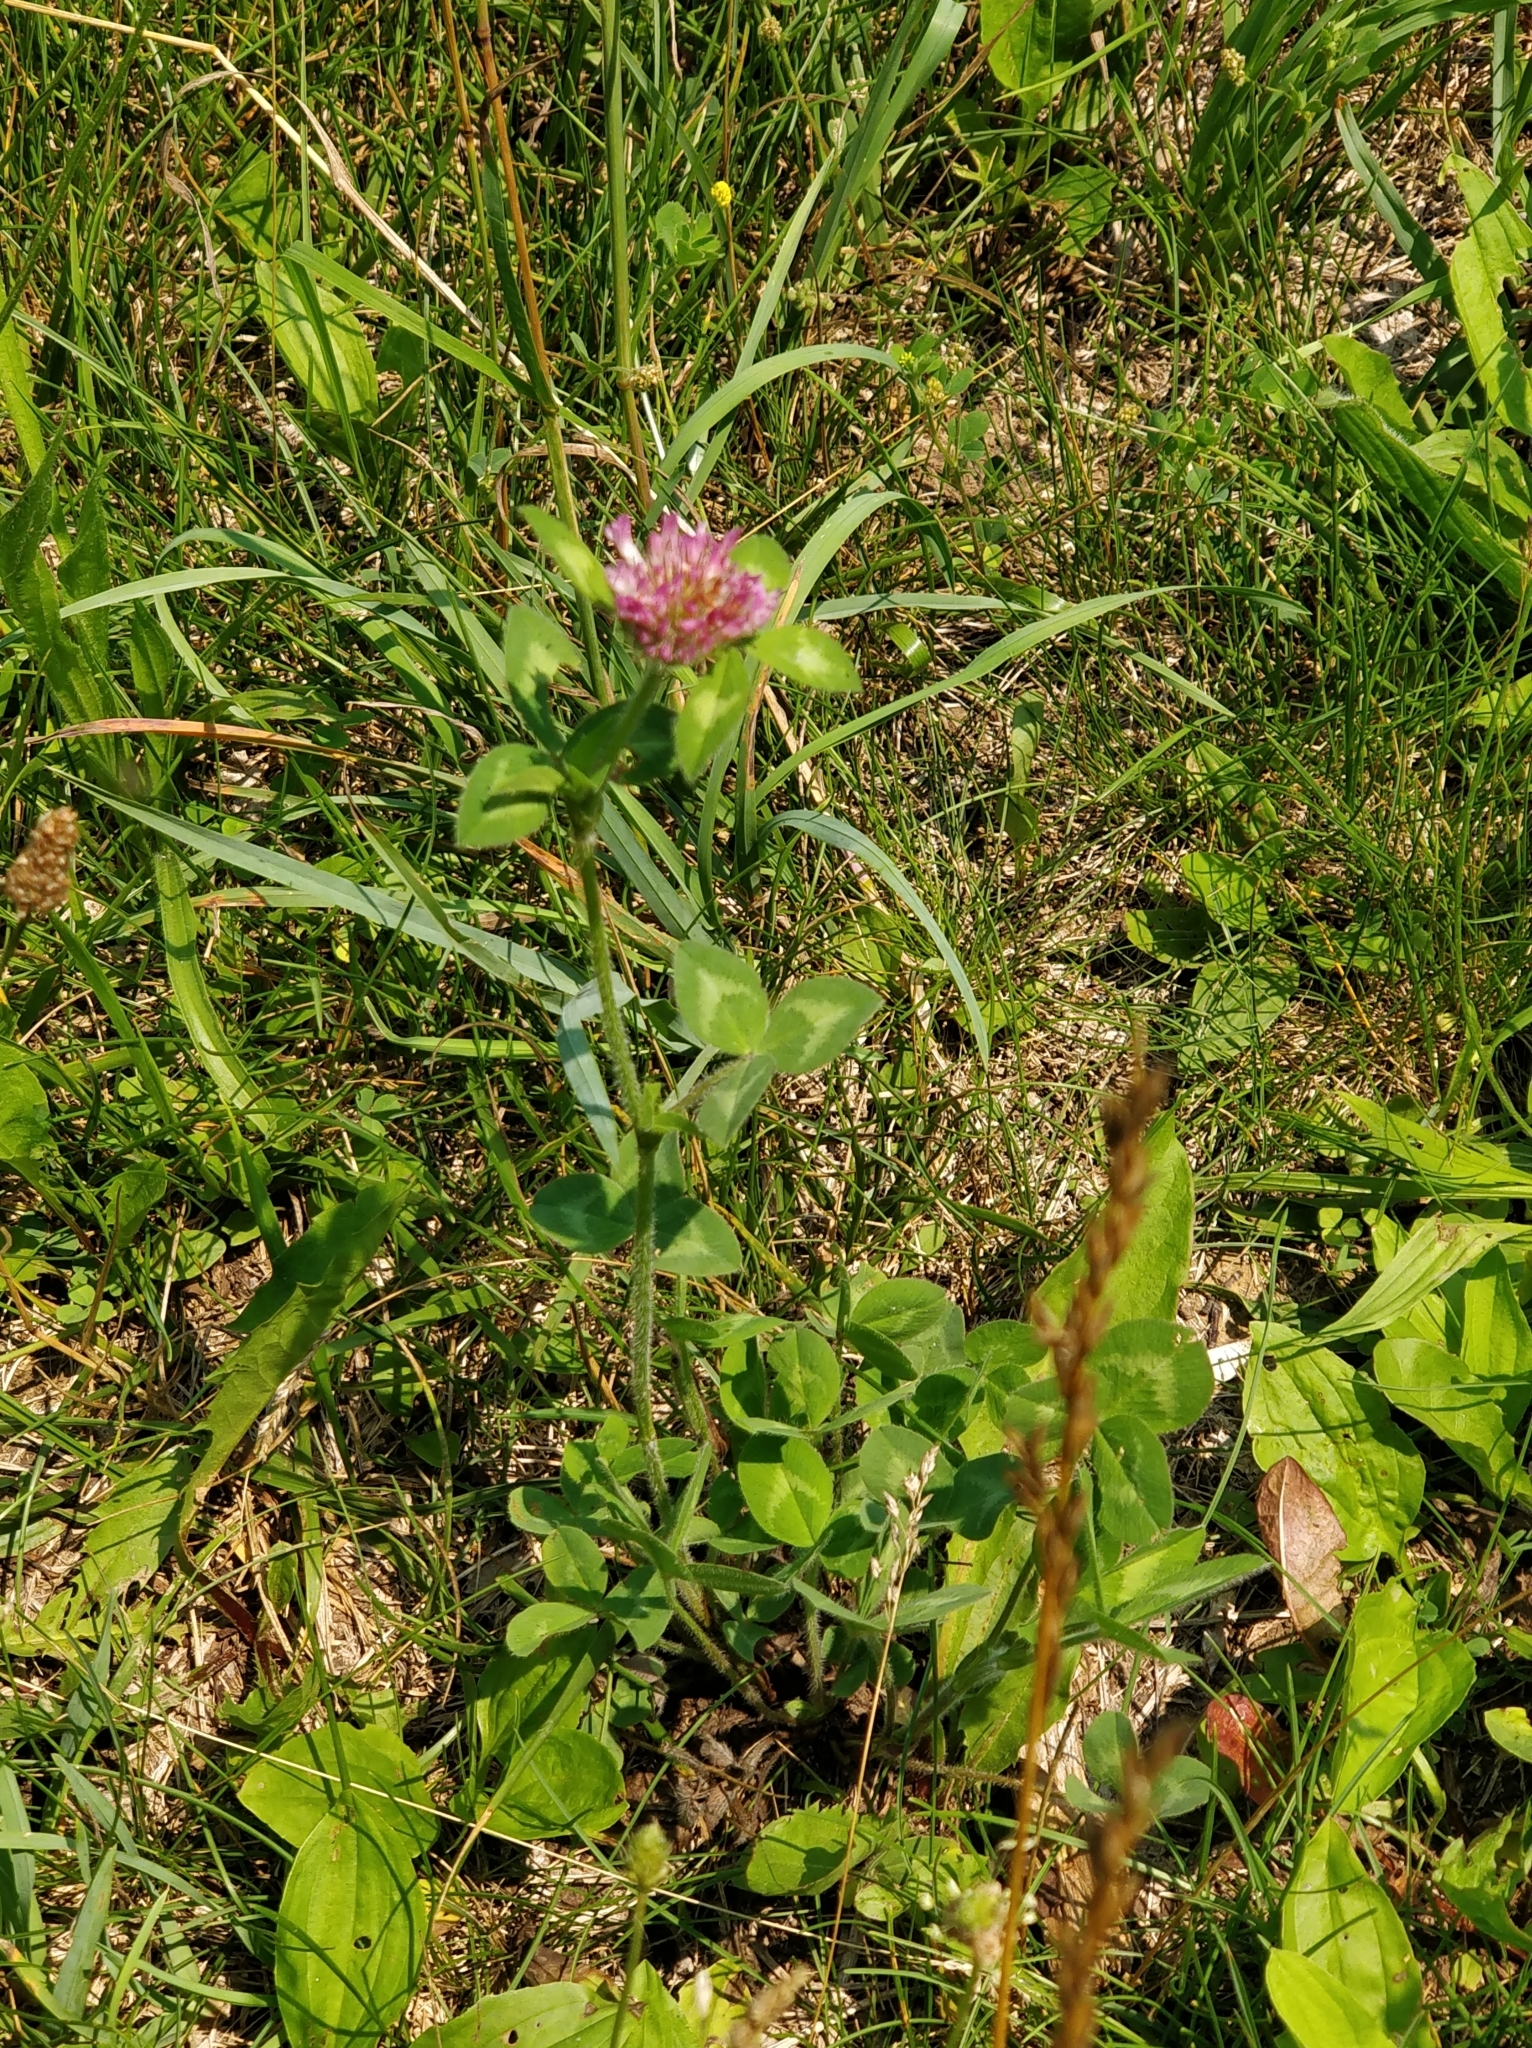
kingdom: Plantae
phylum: Tracheophyta
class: Magnoliopsida
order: Fabales
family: Fabaceae
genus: Trifolium
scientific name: Trifolium pratense
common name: Red clover
